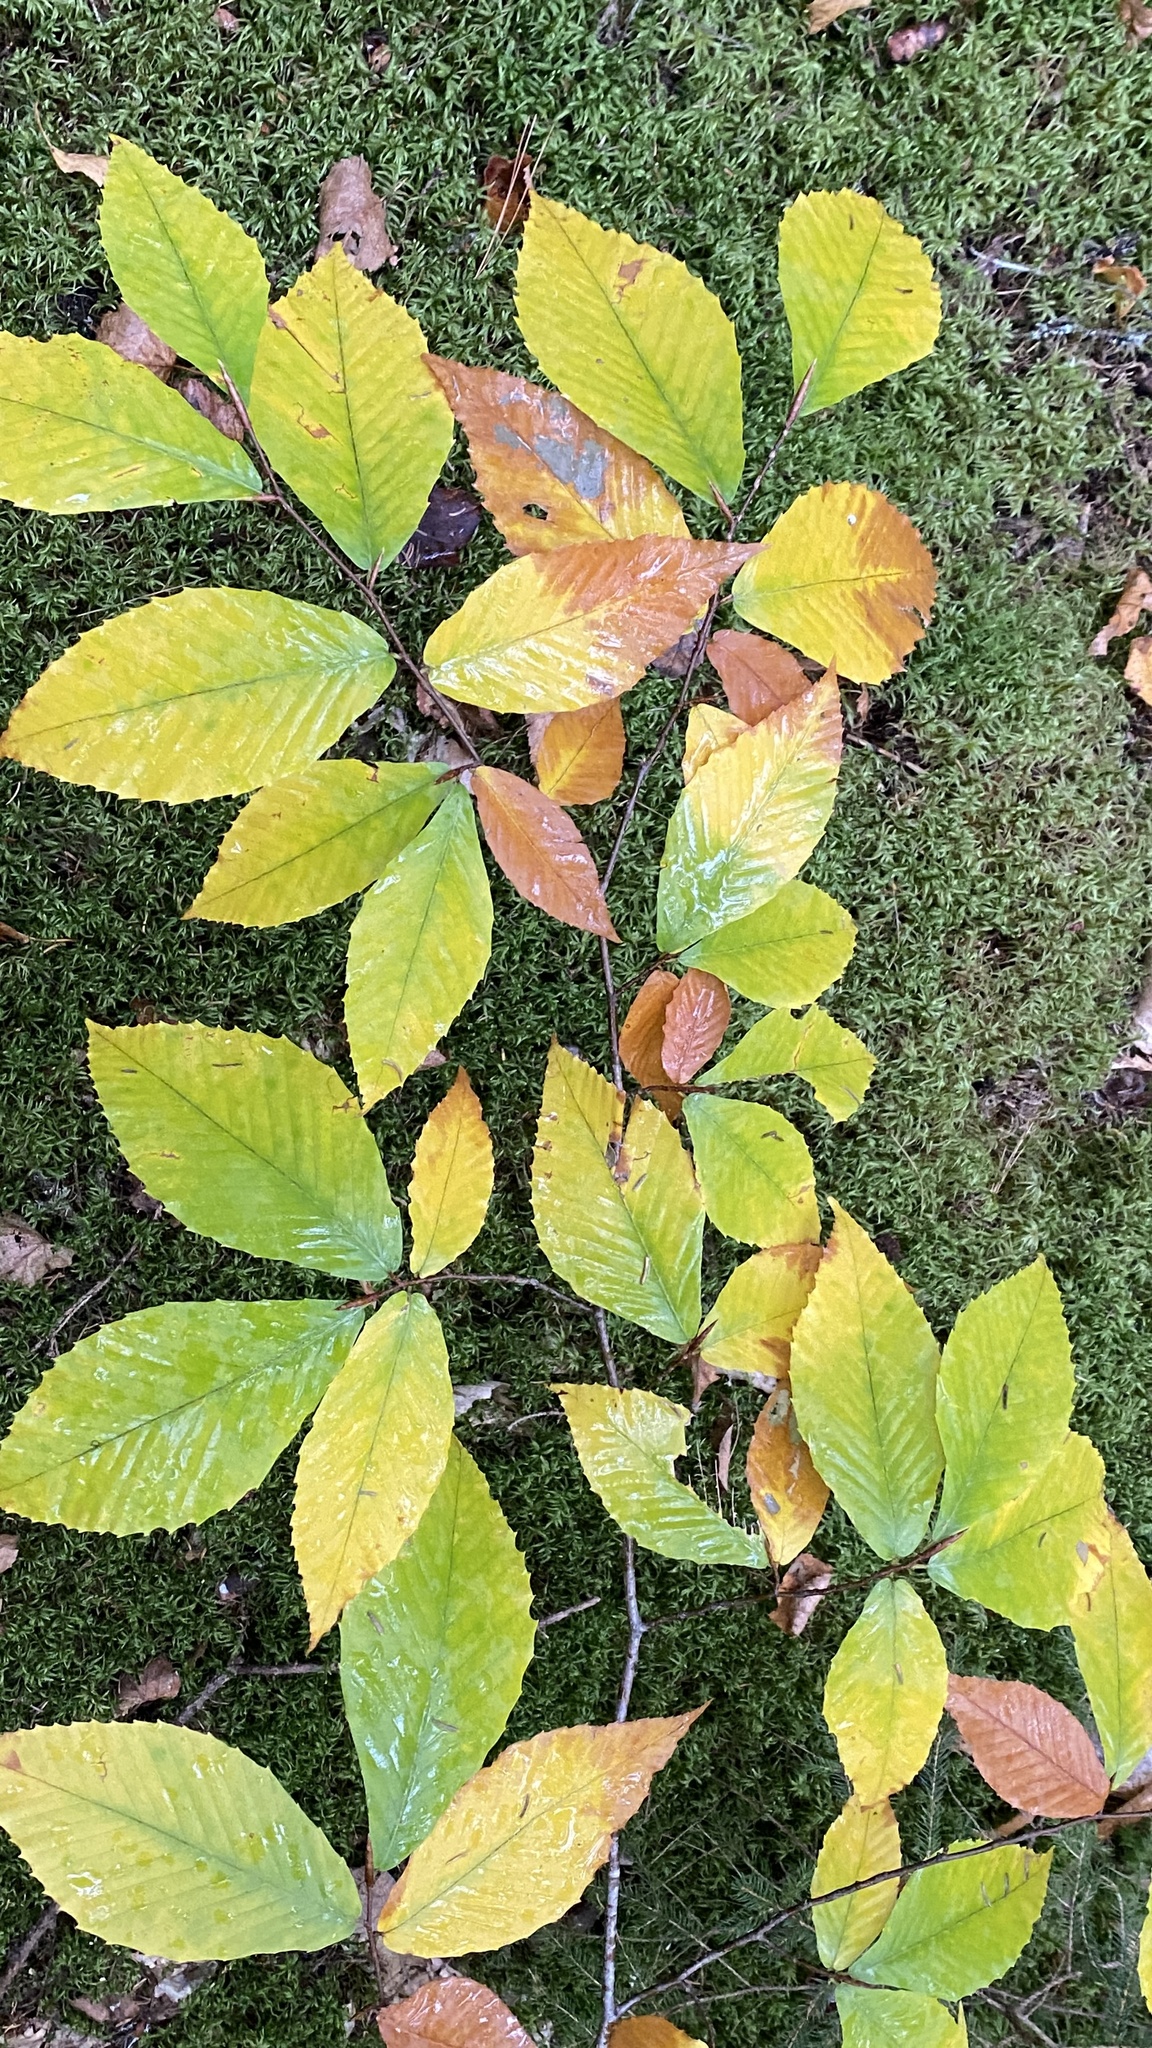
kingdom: Plantae
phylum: Tracheophyta
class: Magnoliopsida
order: Fagales
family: Fagaceae
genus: Fagus
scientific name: Fagus grandifolia
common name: American beech
